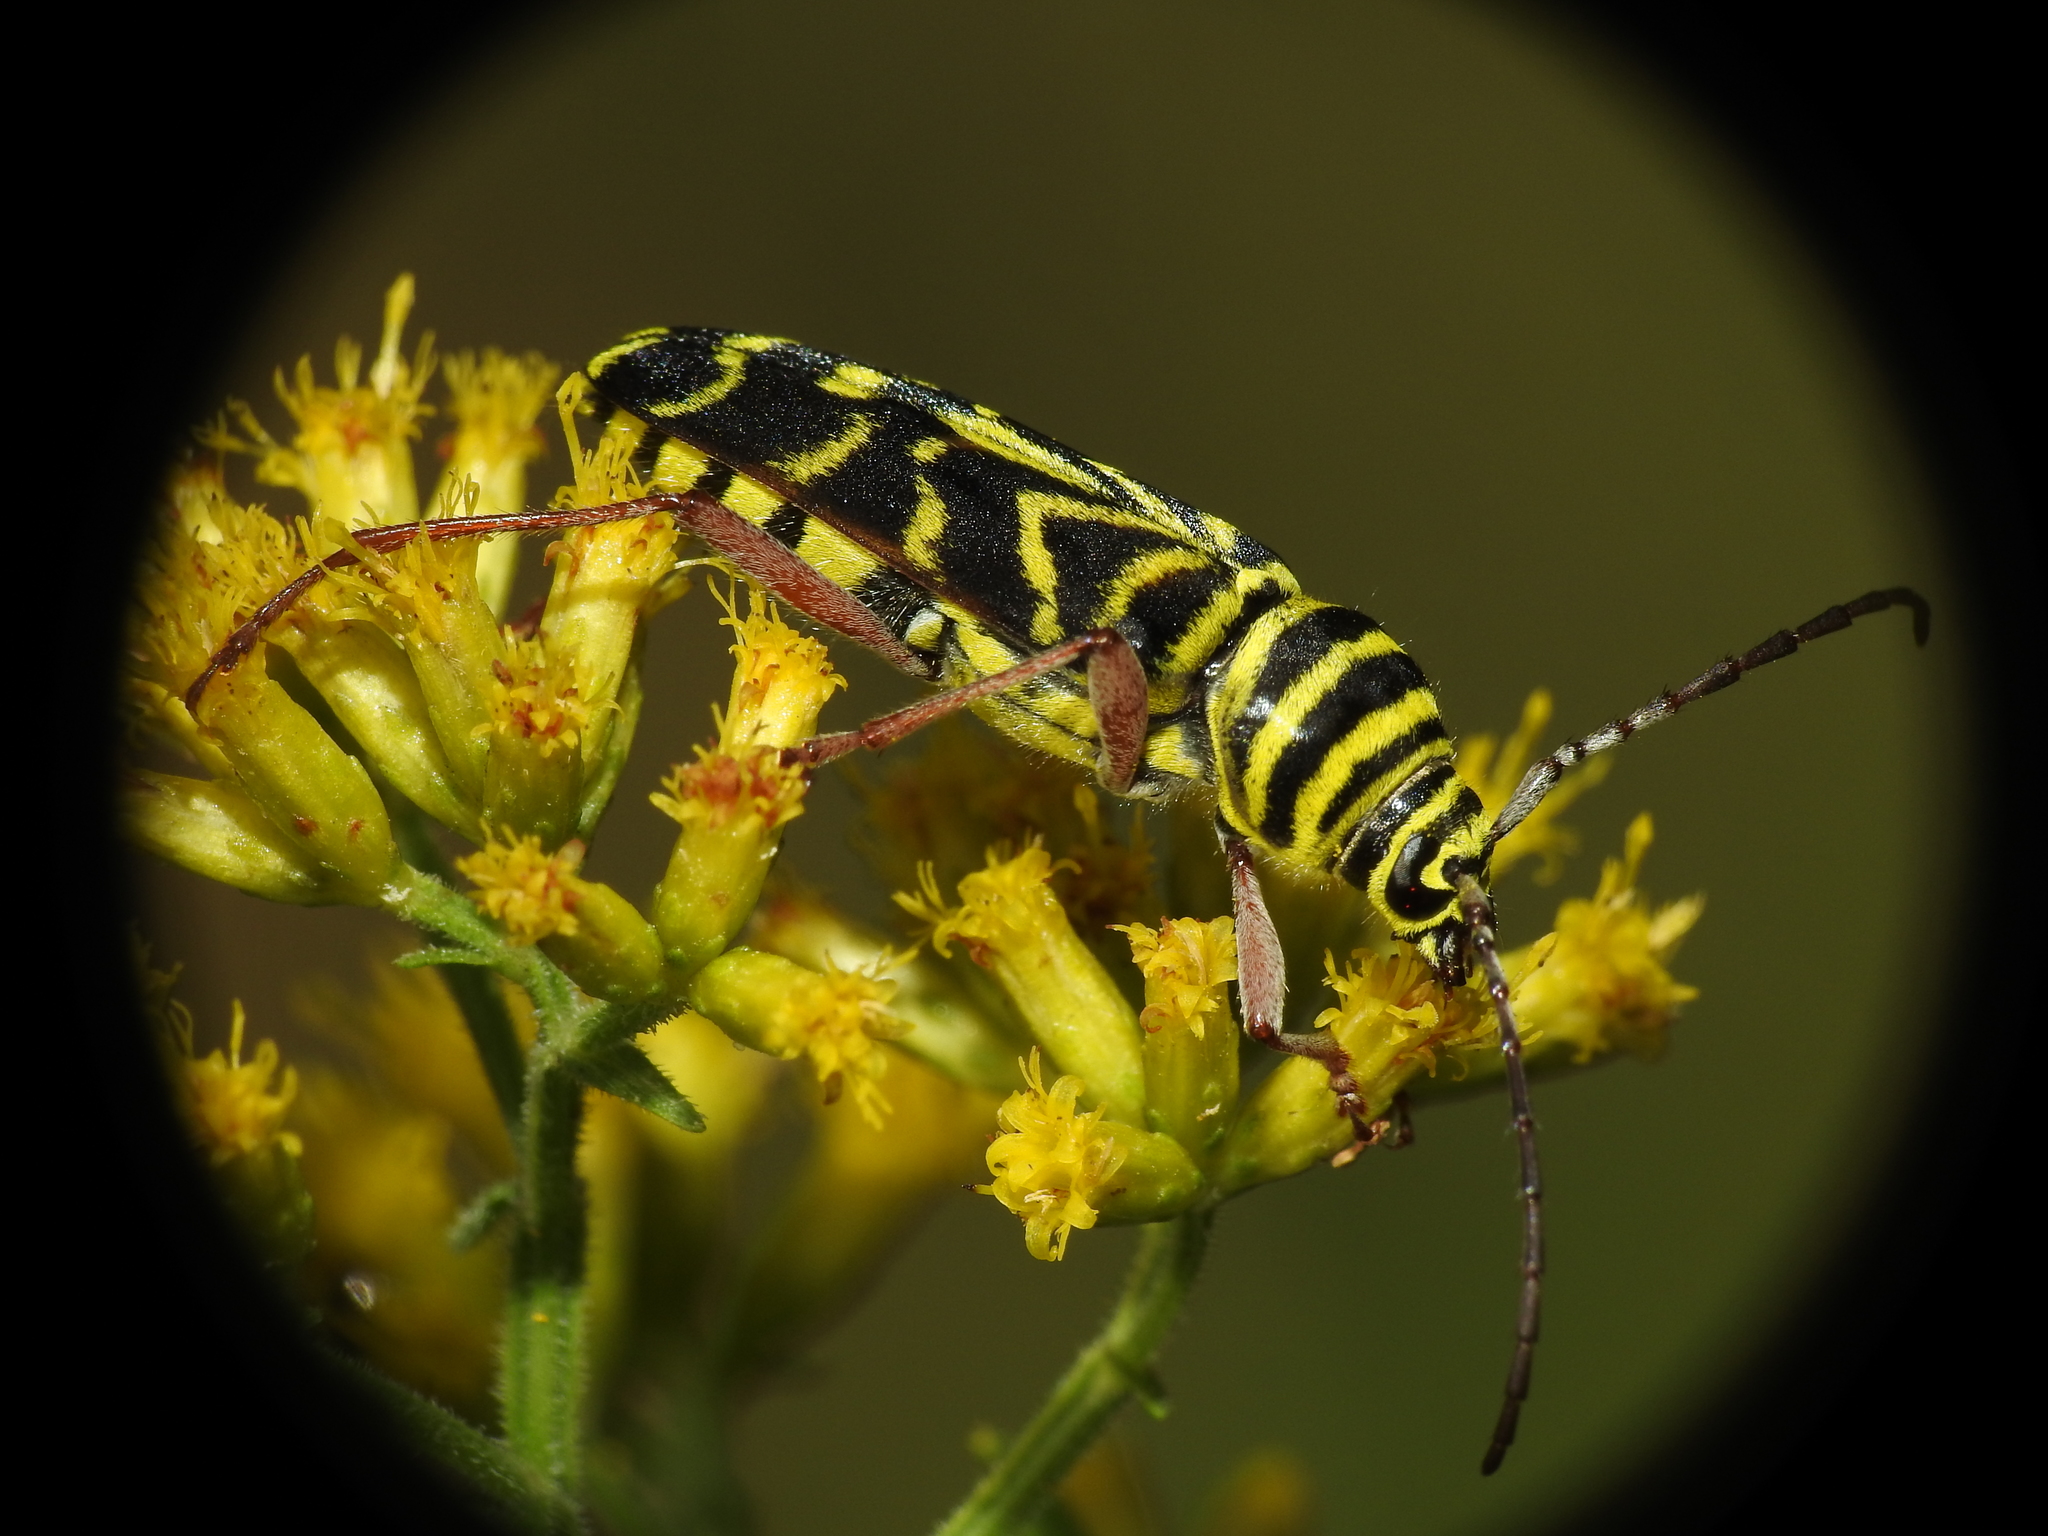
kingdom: Animalia
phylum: Arthropoda
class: Insecta
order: Coleoptera
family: Cerambycidae
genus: Megacyllene
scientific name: Megacyllene robiniae
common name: Locust borer
